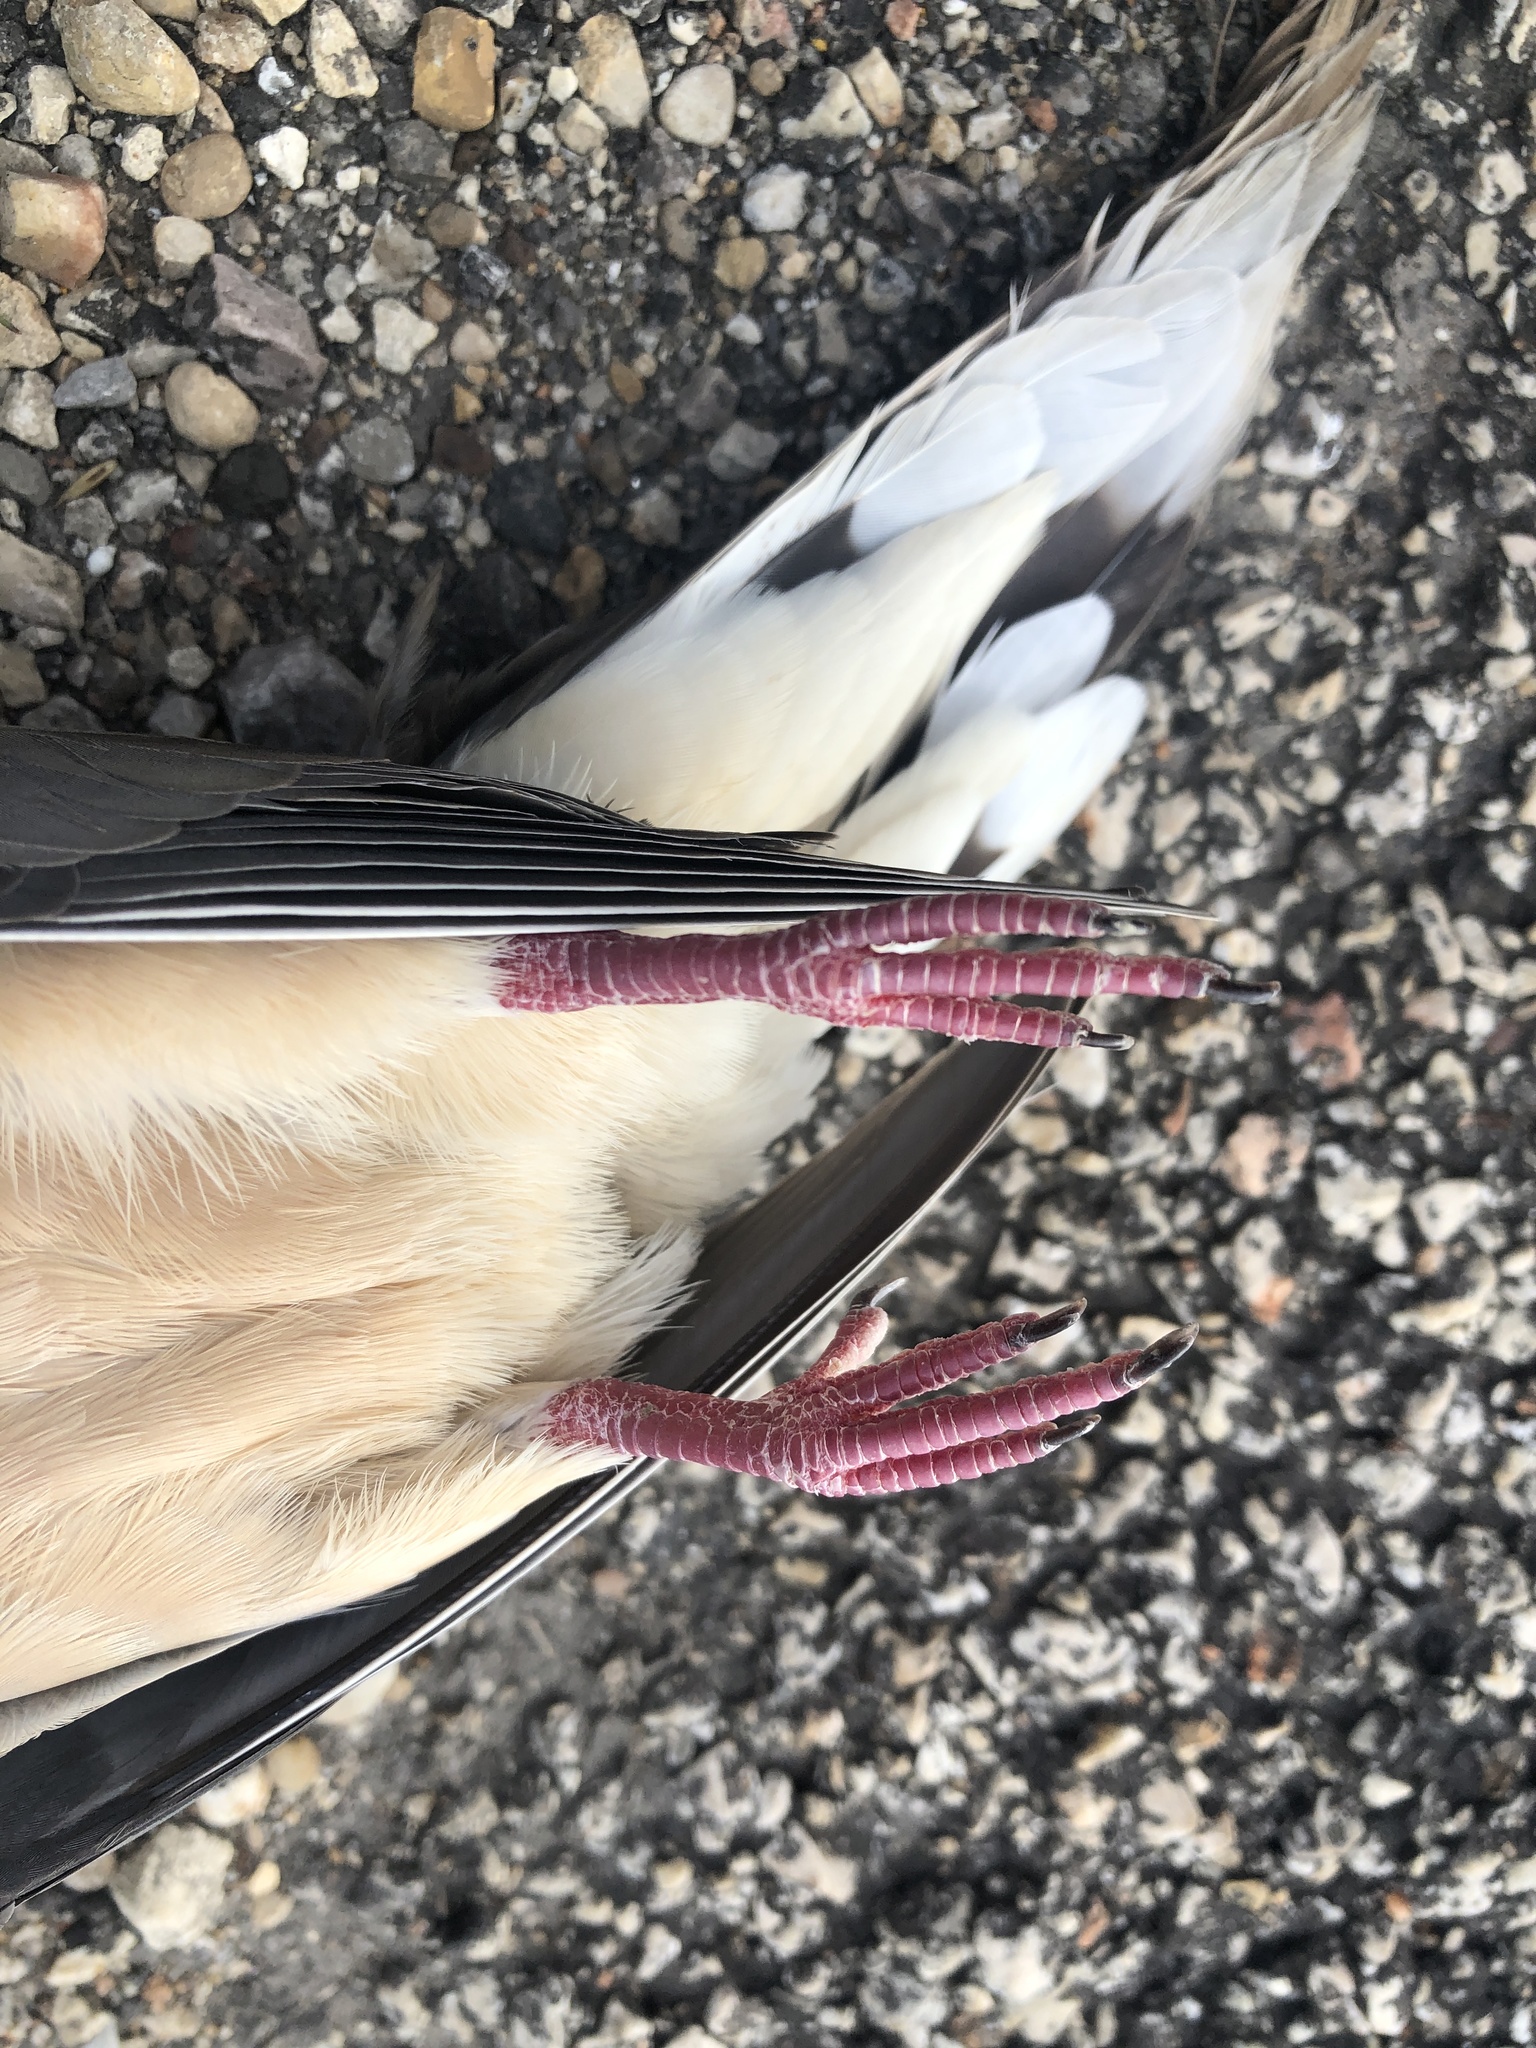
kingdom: Animalia
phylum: Chordata
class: Aves
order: Columbiformes
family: Columbidae
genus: Zenaida
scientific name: Zenaida macroura
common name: Mourning dove
